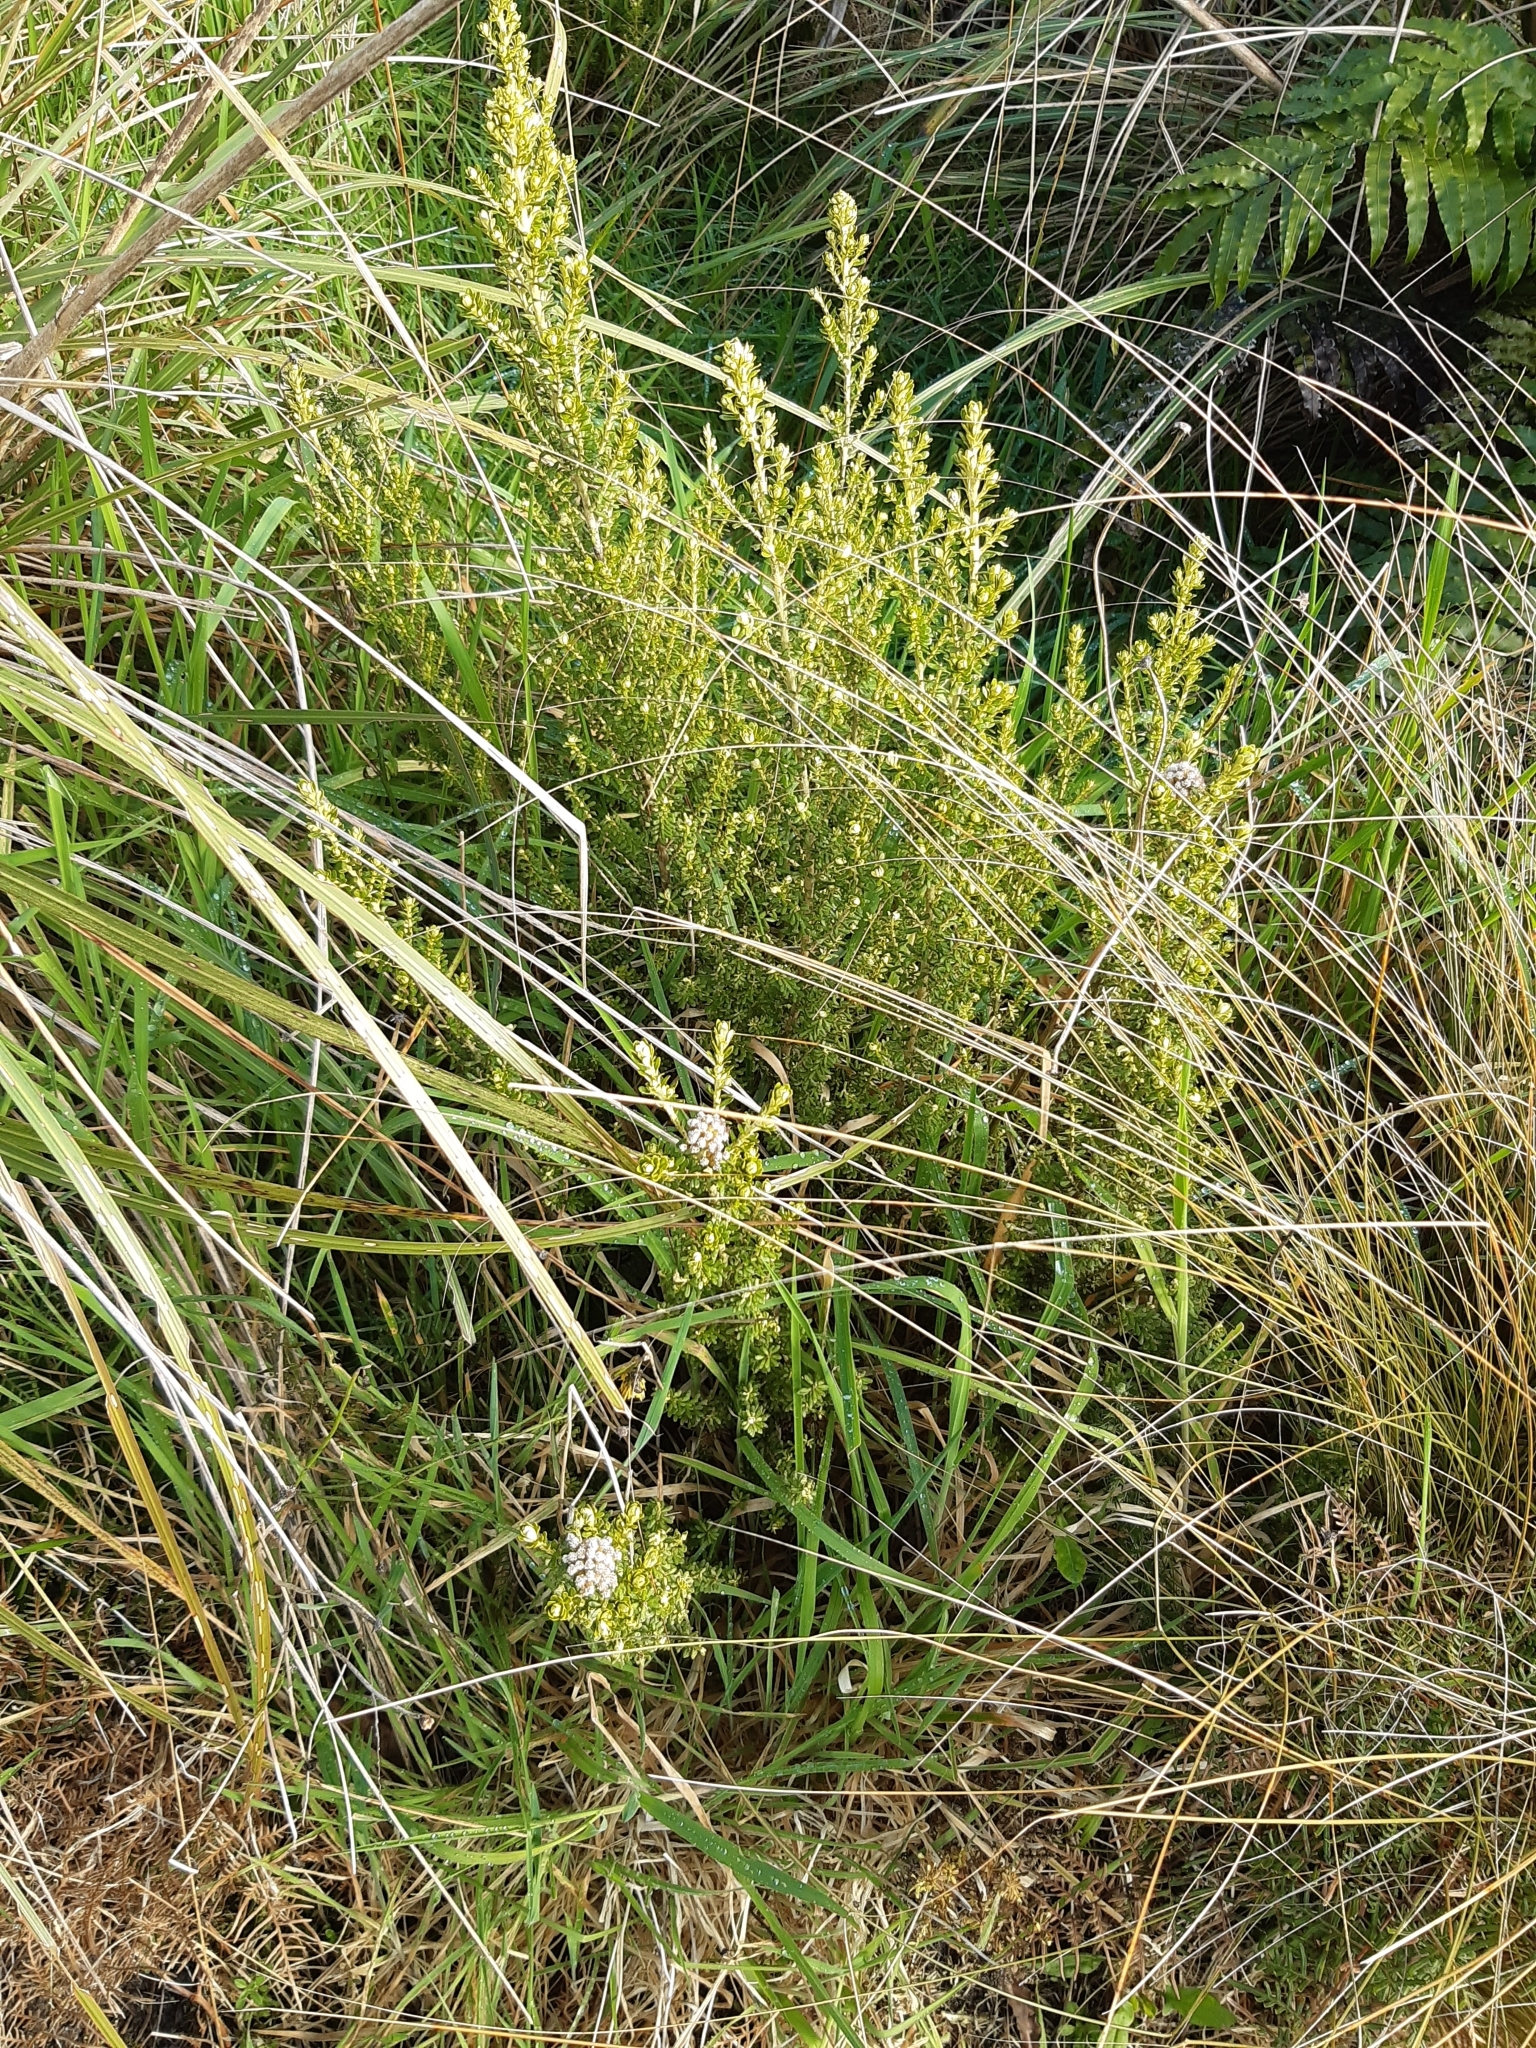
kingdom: Plantae
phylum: Tracheophyta
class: Magnoliopsida
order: Asterales
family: Asteraceae
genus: Ozothamnus
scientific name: Ozothamnus leptophyllus
